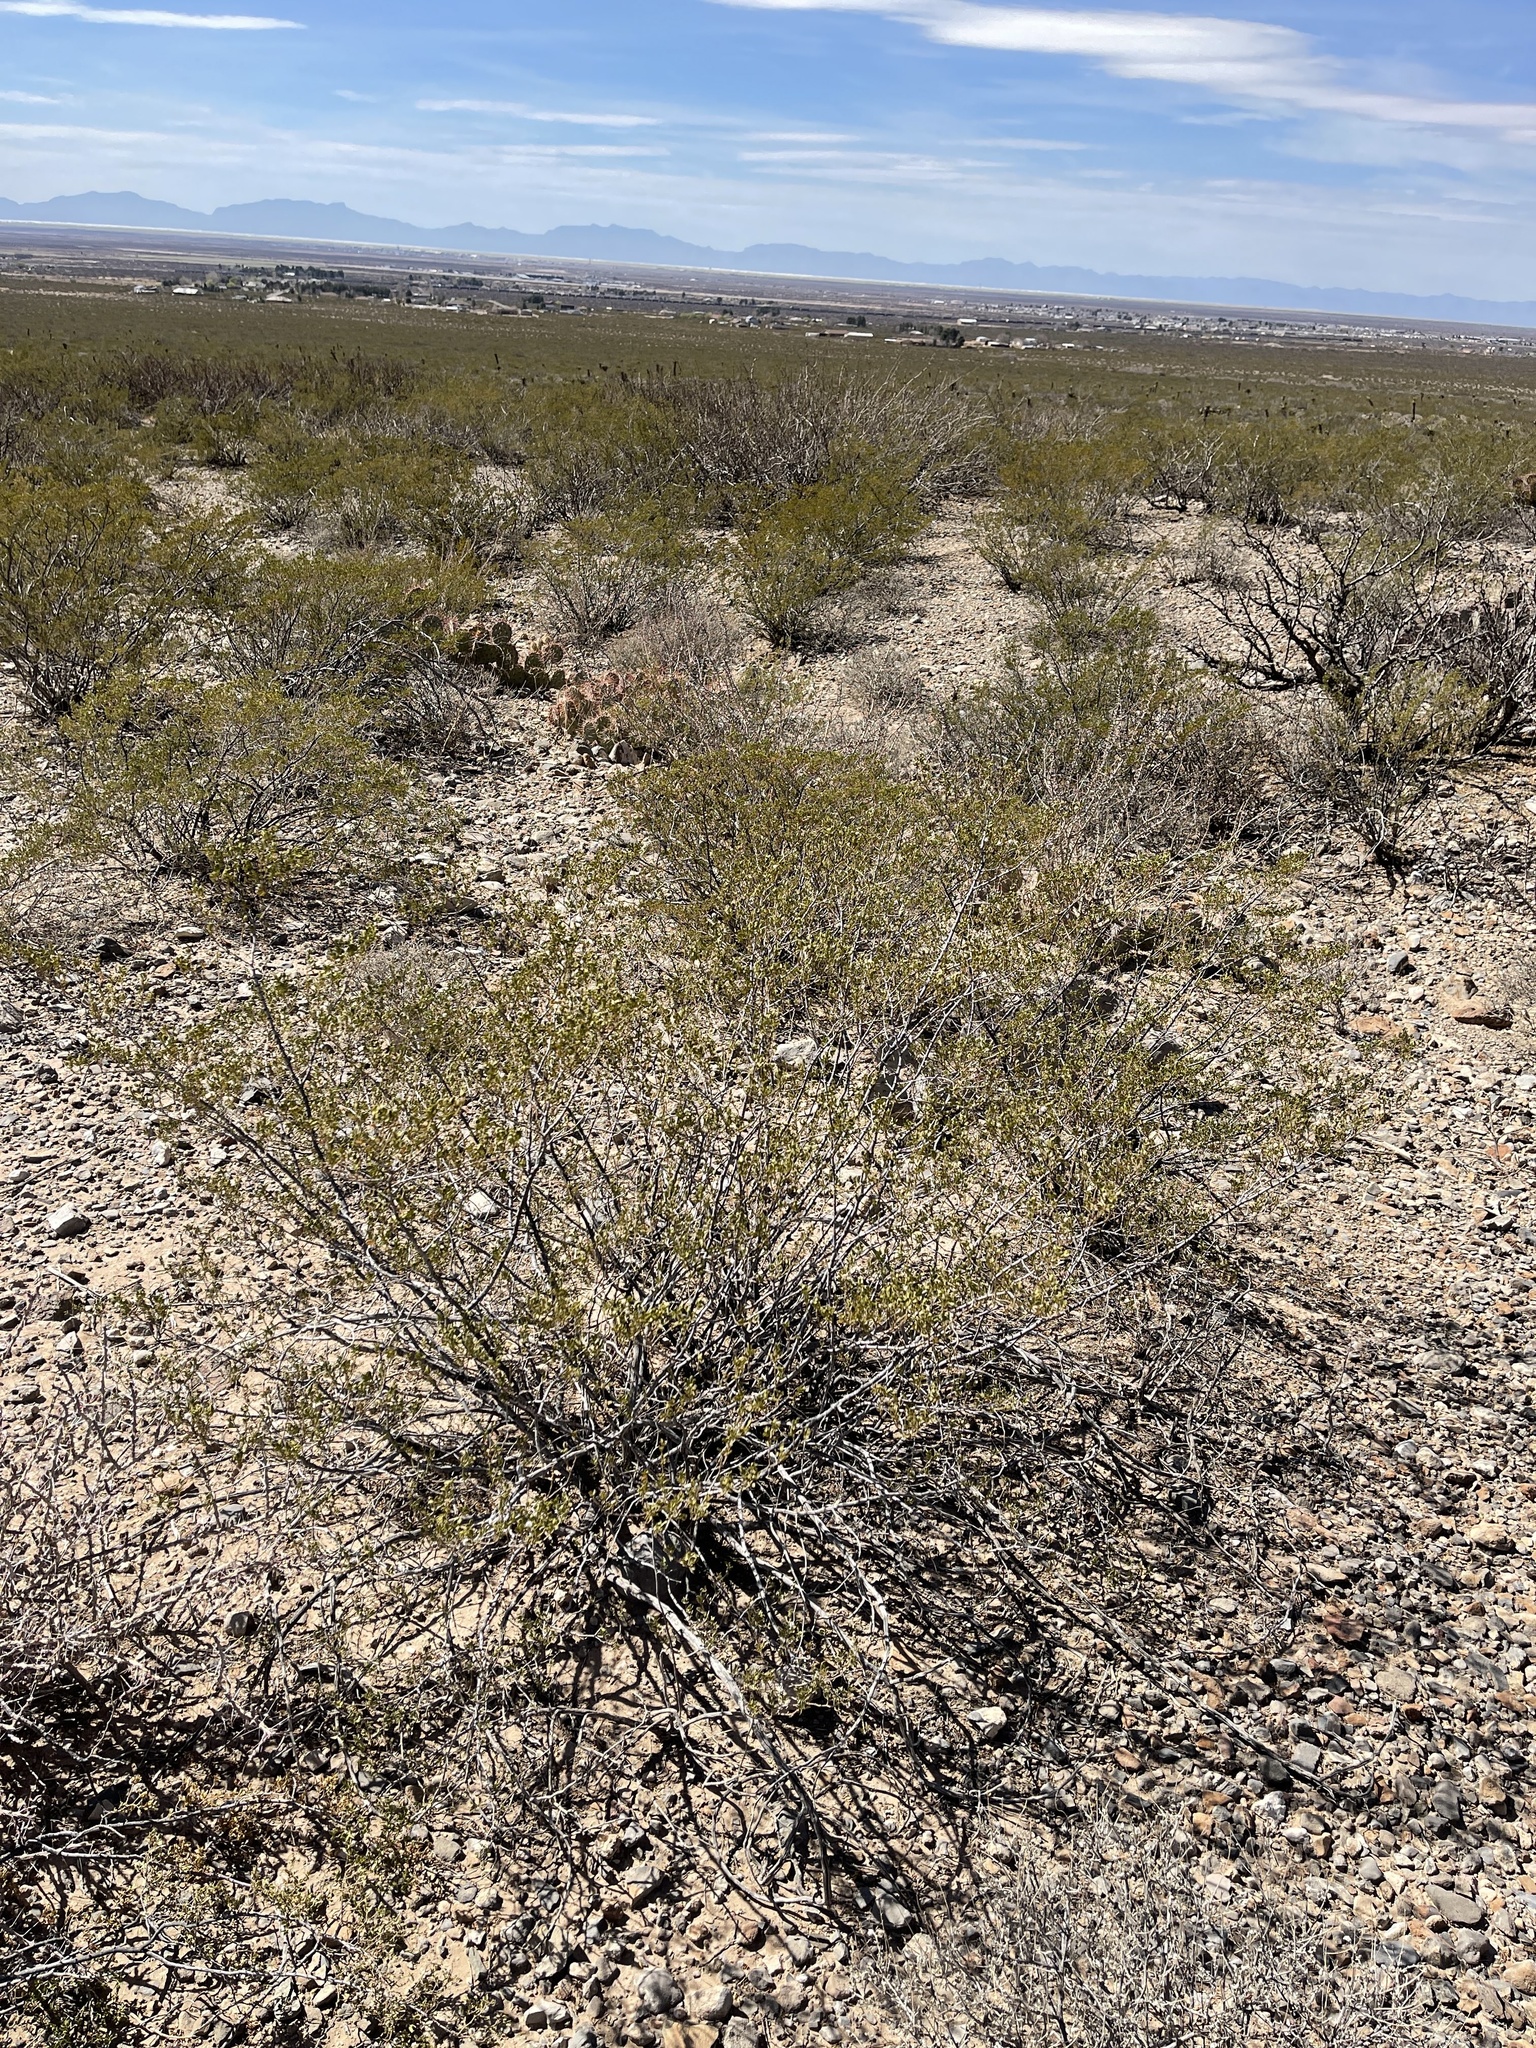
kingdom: Plantae
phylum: Tracheophyta
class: Magnoliopsida
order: Zygophyllales
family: Zygophyllaceae
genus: Larrea
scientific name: Larrea tridentata
